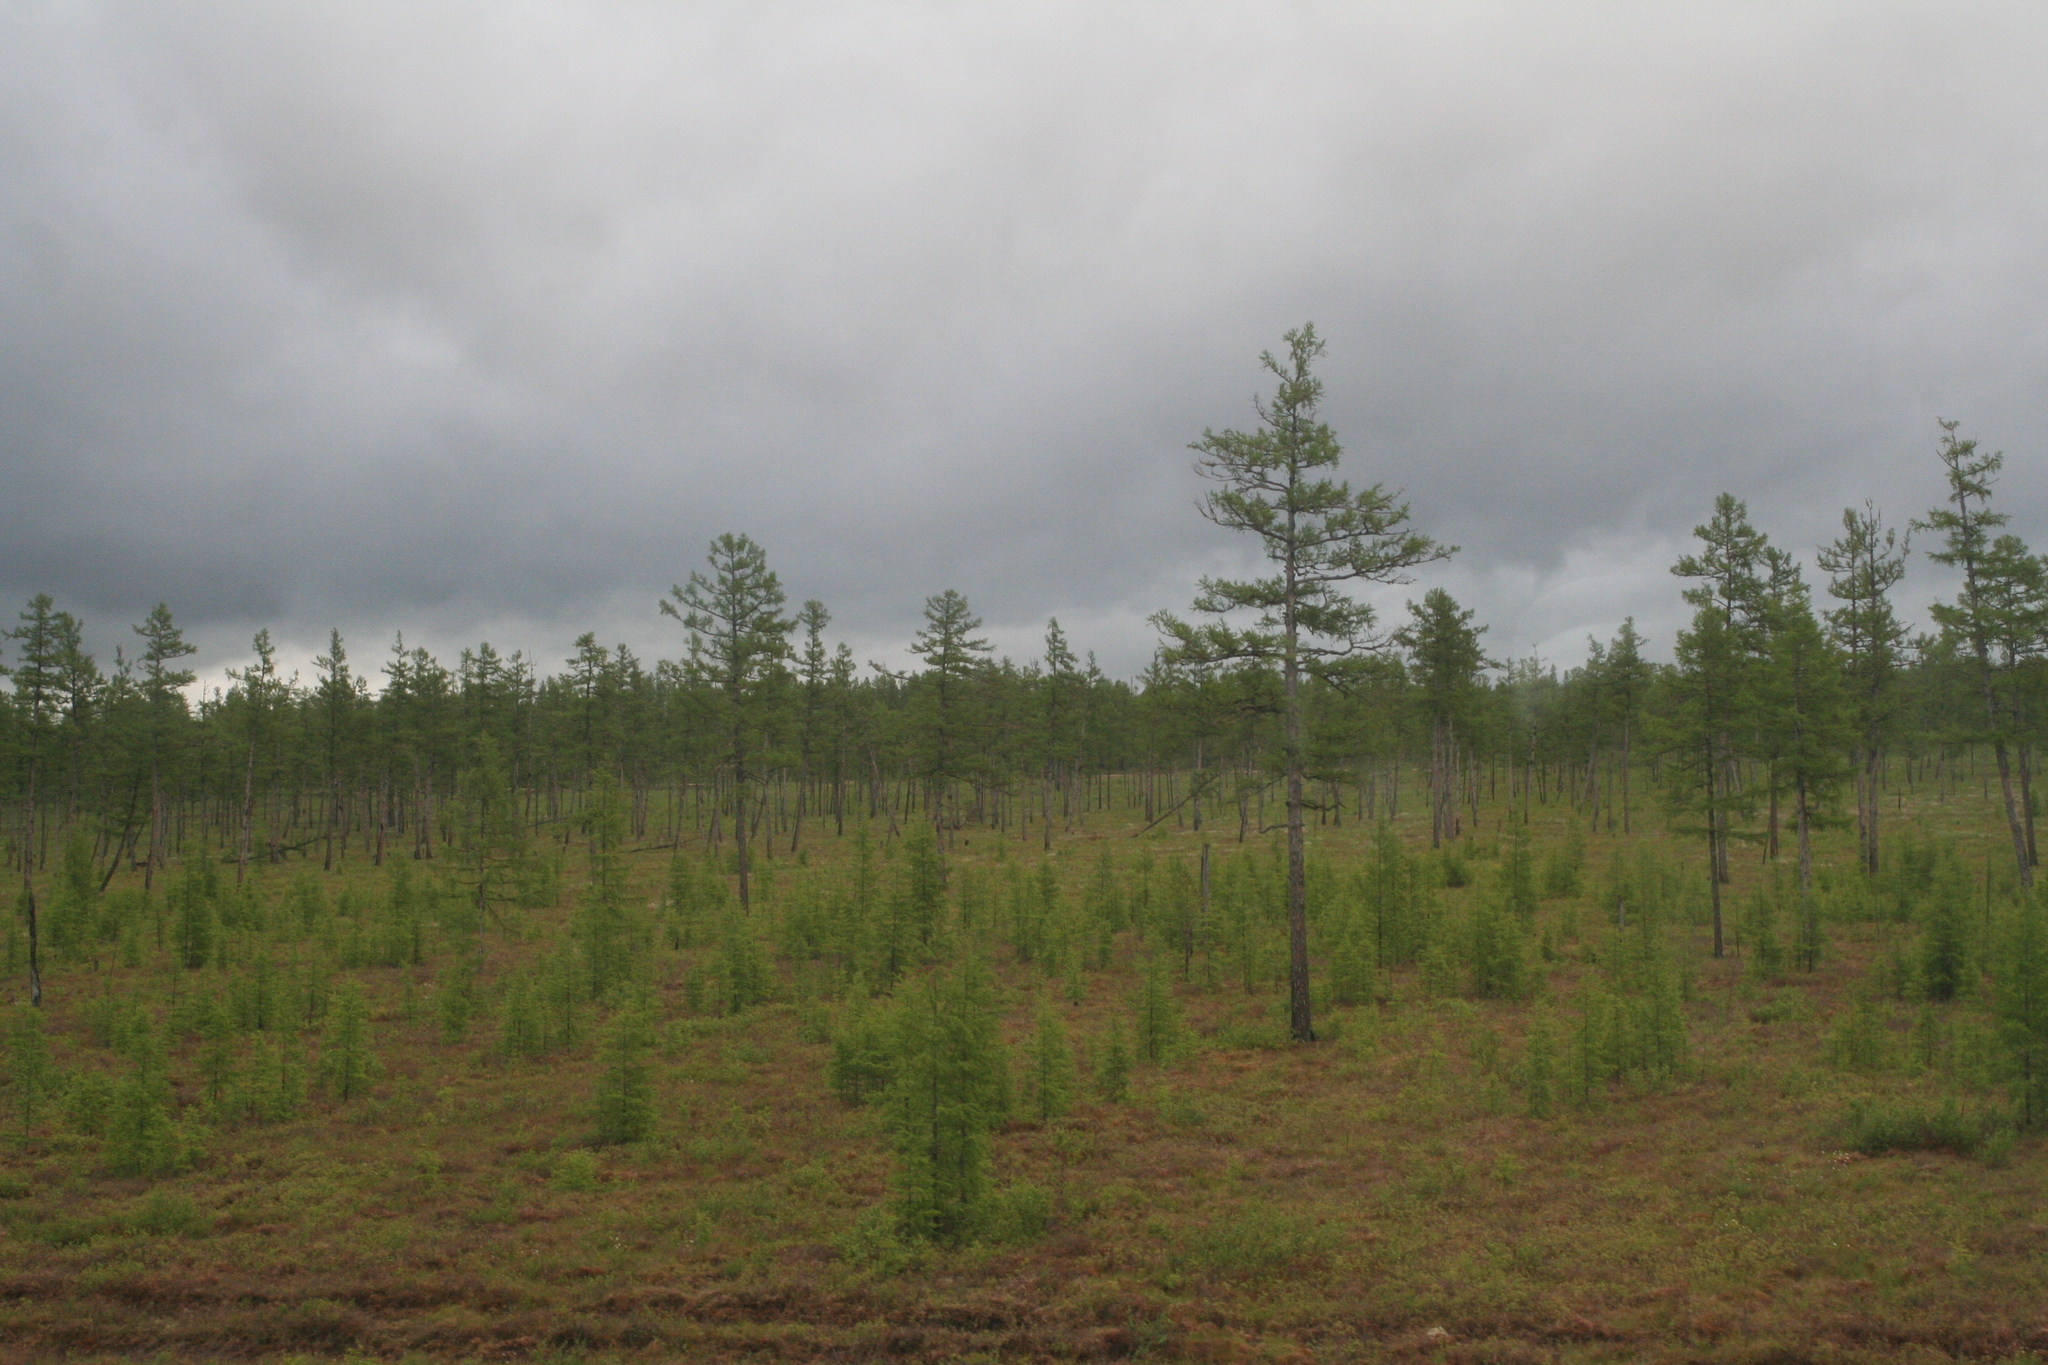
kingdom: Plantae
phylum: Tracheophyta
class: Pinopsida
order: Pinales
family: Pinaceae
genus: Larix
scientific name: Larix gmelinii
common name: Dahurian larch
